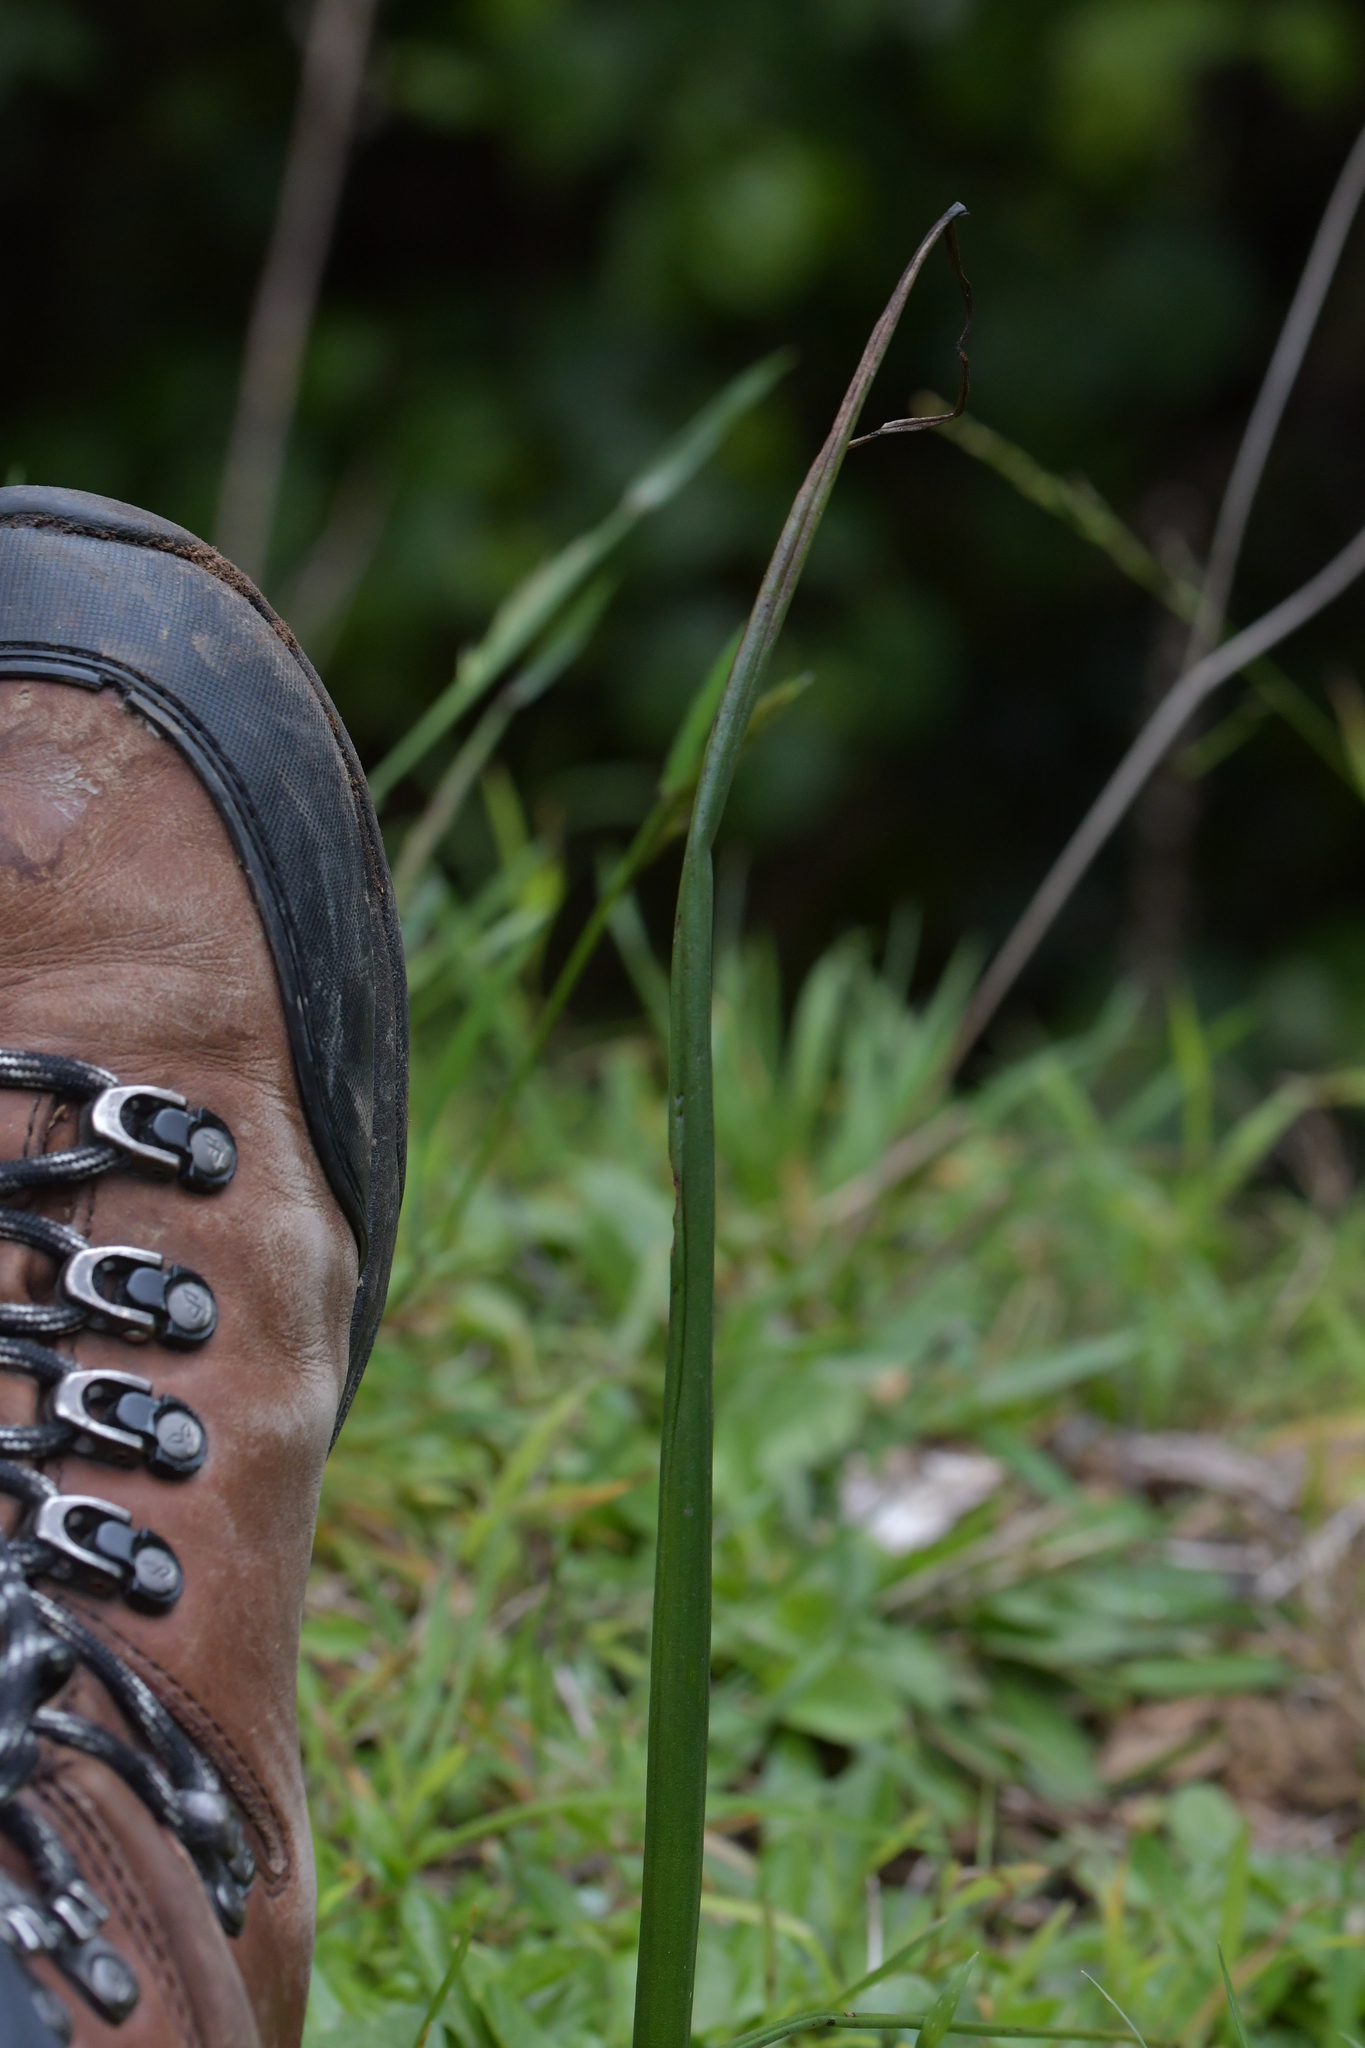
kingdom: Plantae
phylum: Tracheophyta
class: Liliopsida
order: Asparagales
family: Orchidaceae
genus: Microtis
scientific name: Microtis unifolia
